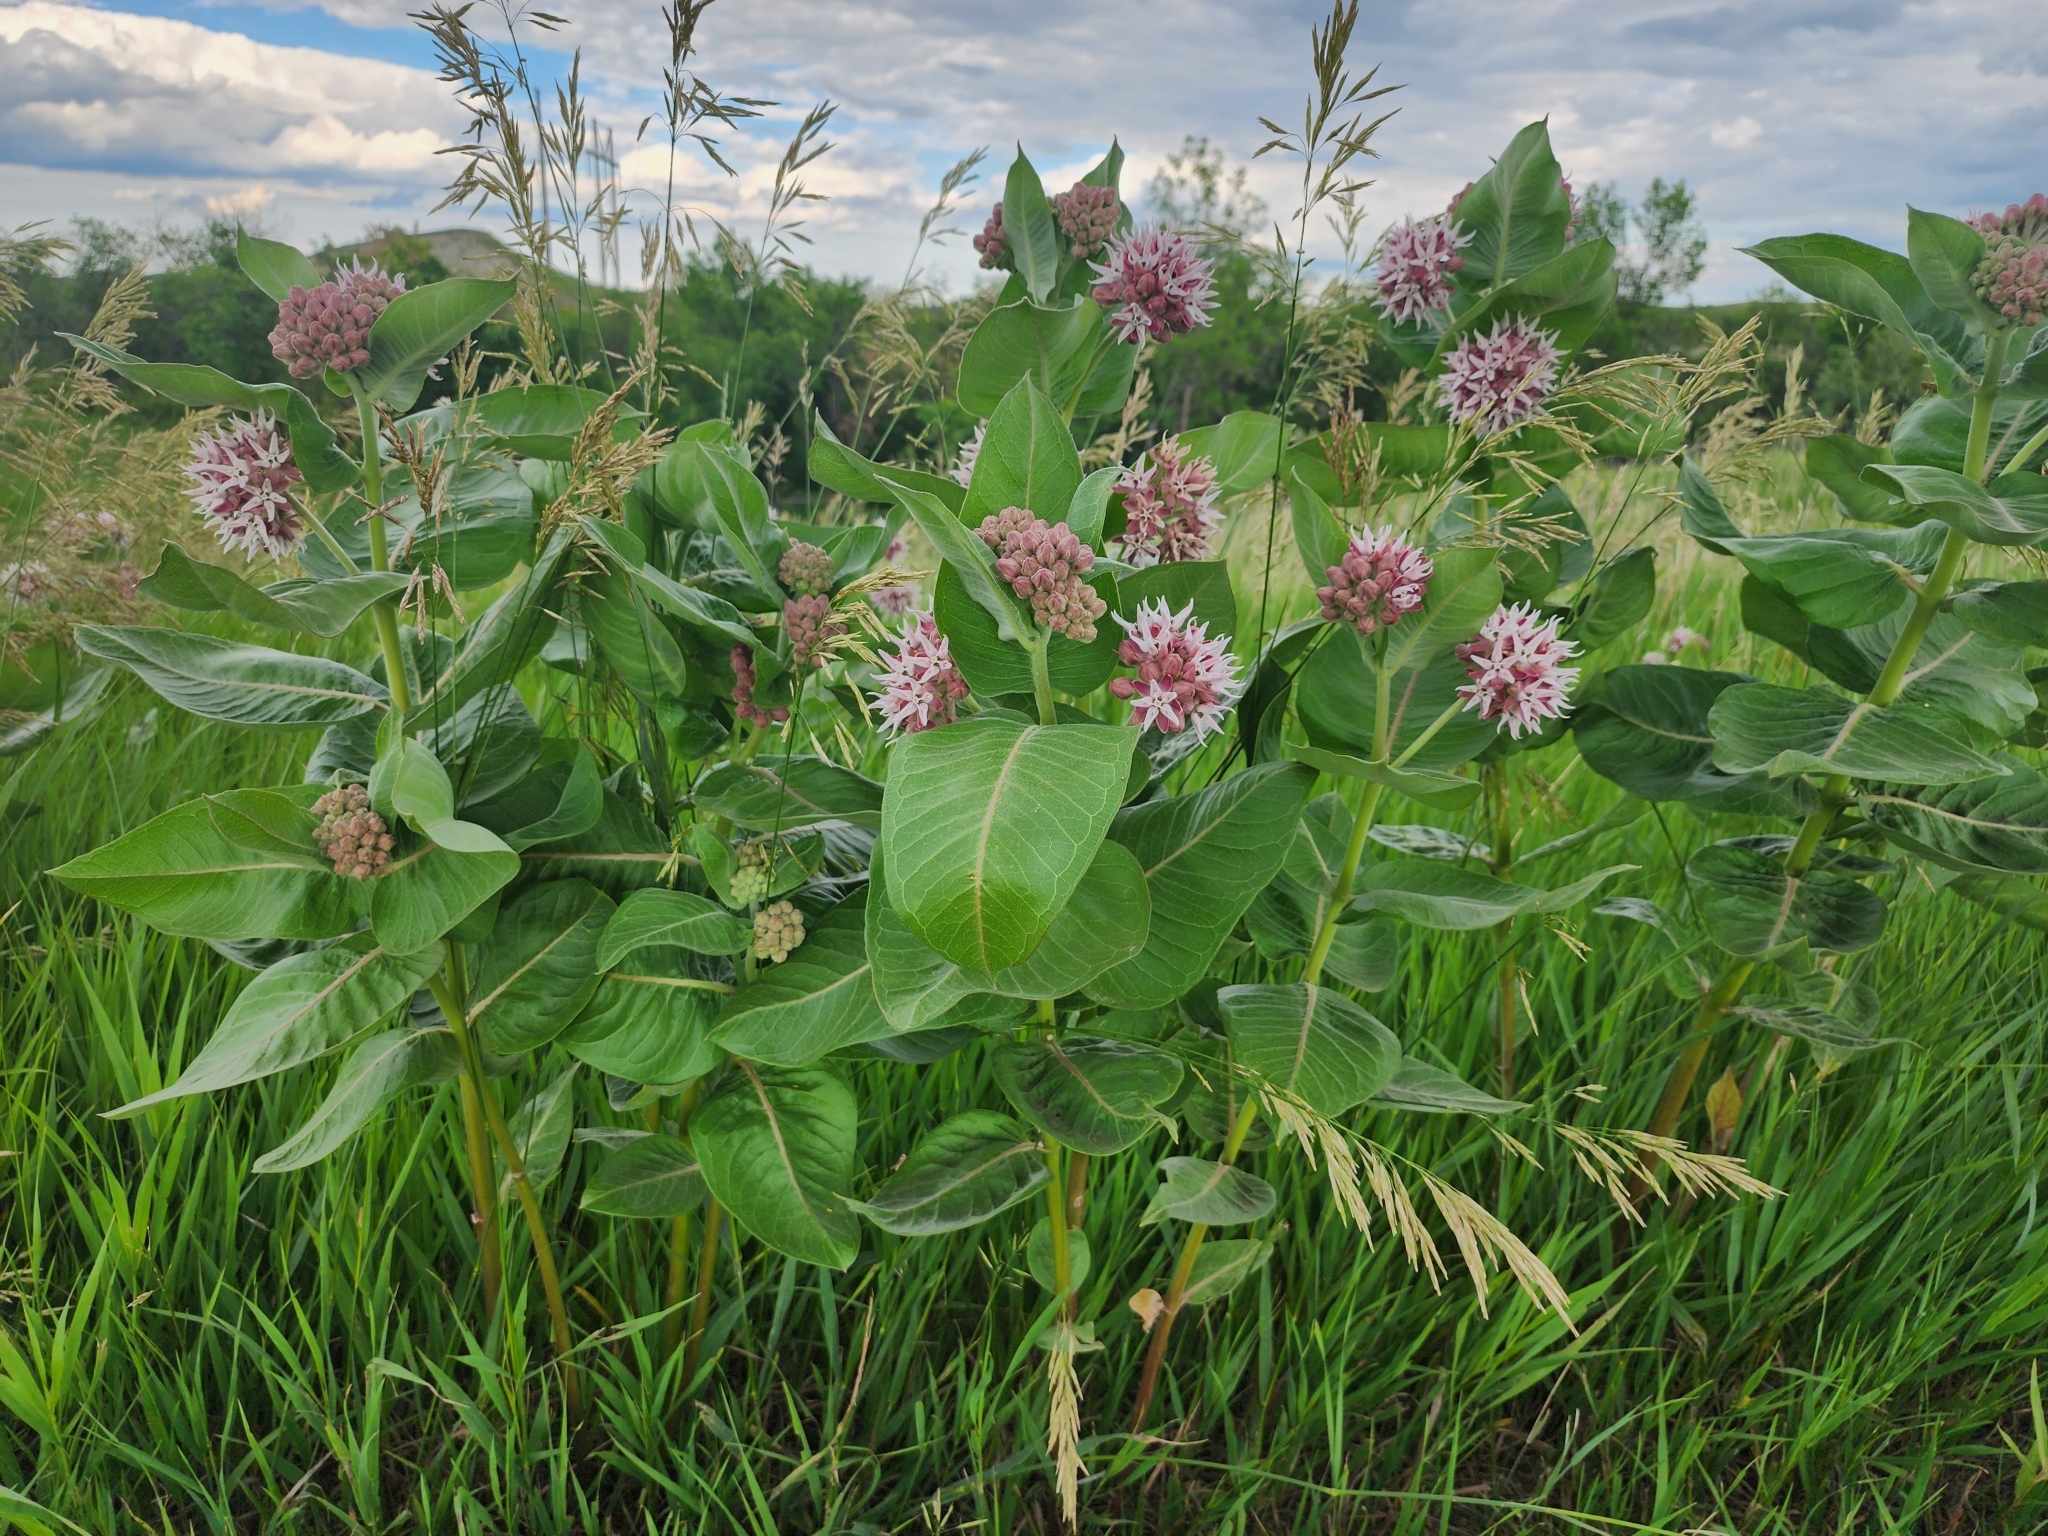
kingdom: Plantae
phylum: Tracheophyta
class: Magnoliopsida
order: Gentianales
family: Apocynaceae
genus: Asclepias
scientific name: Asclepias speciosa
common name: Showy milkweed
